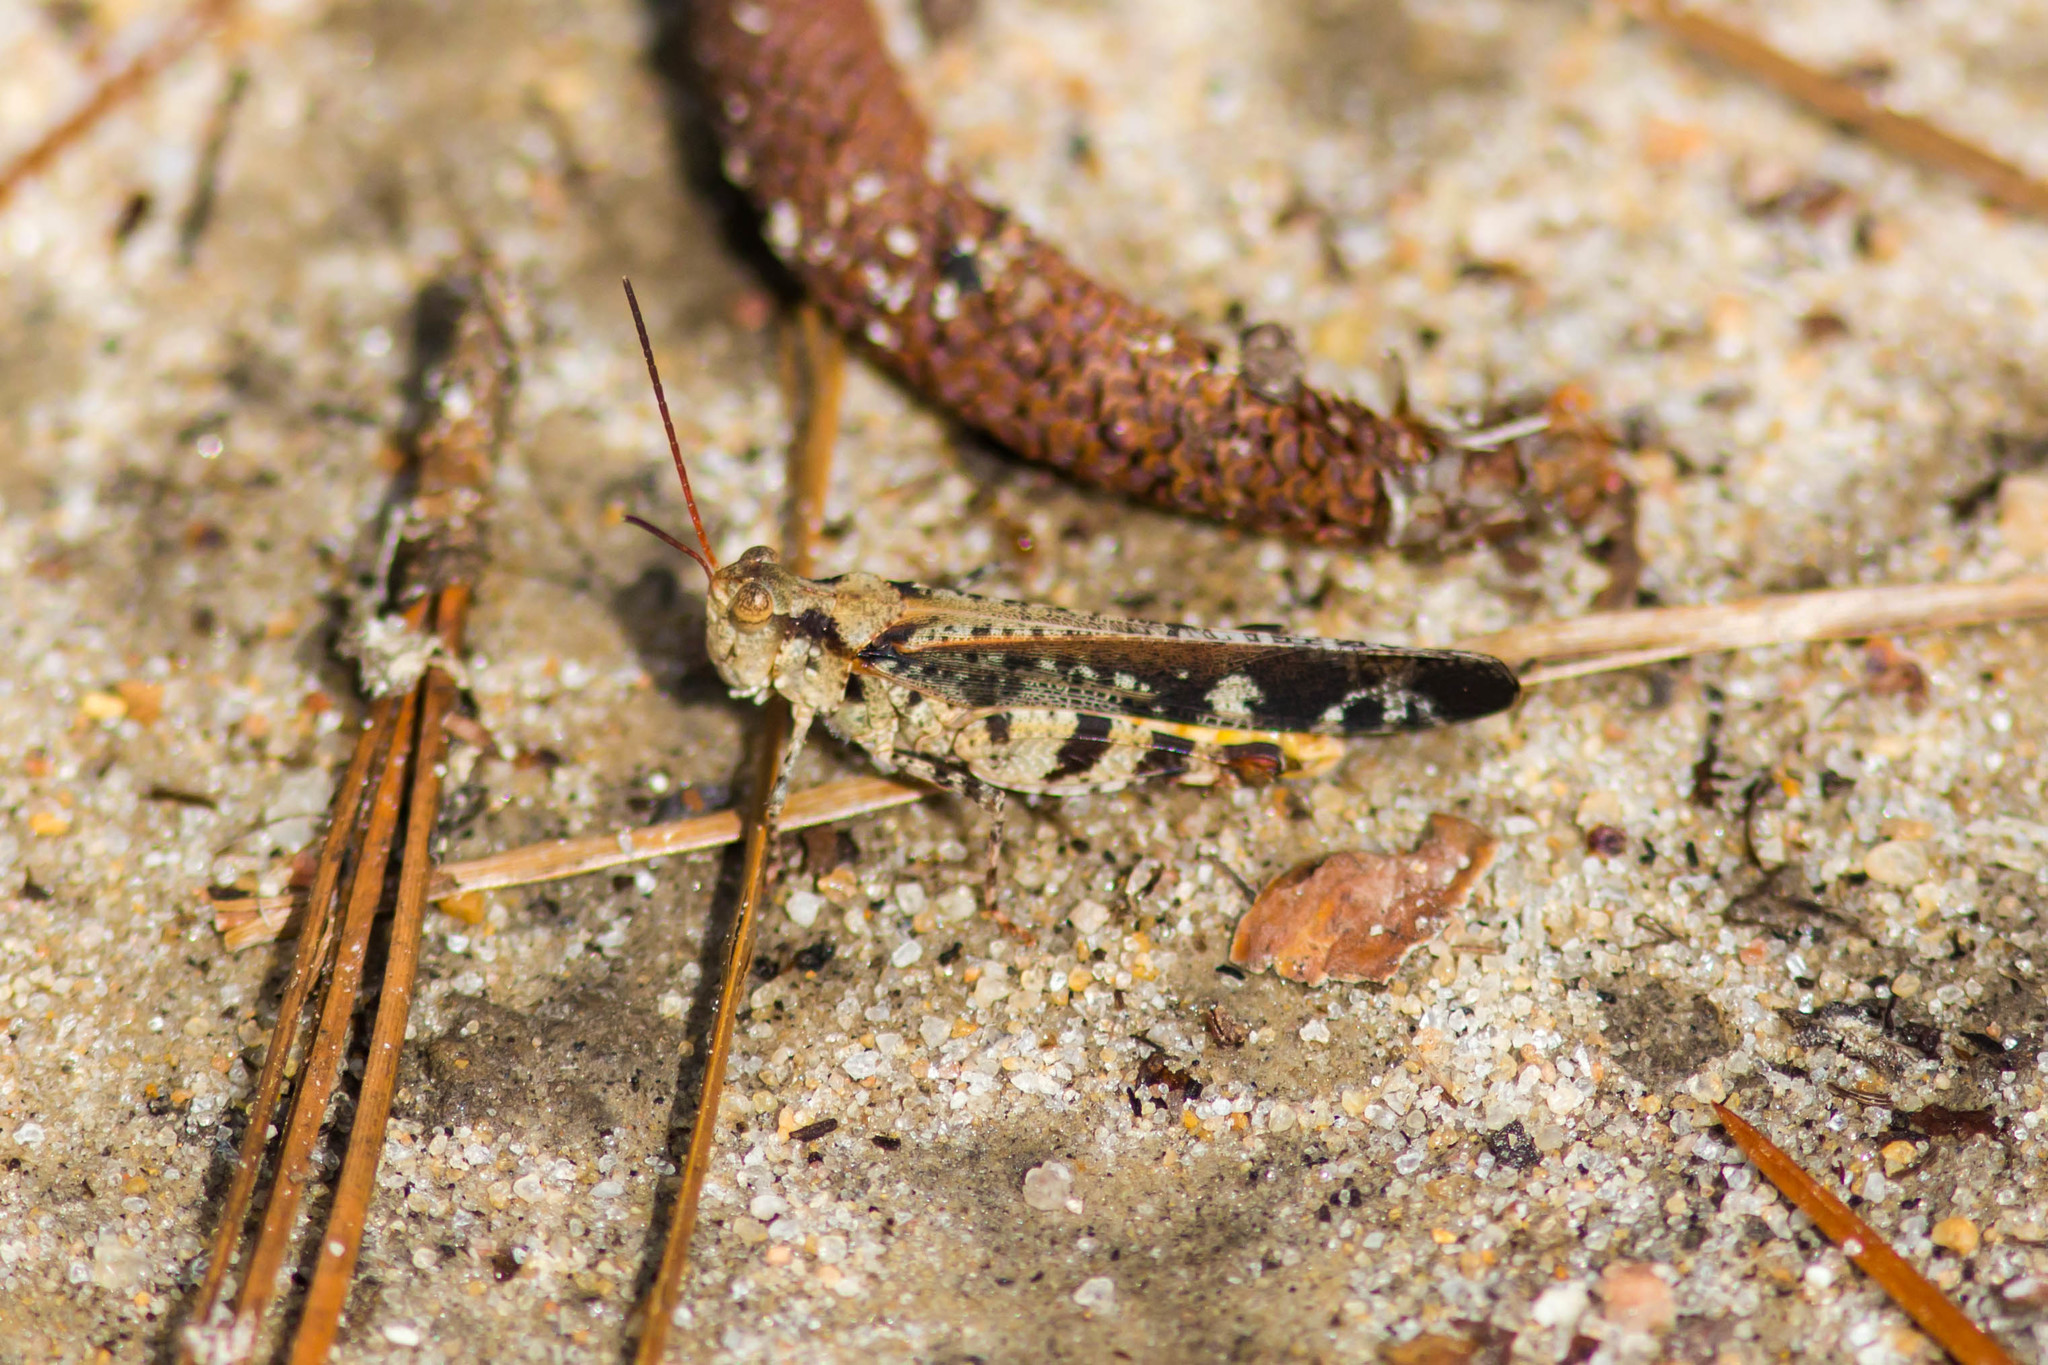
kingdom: Animalia
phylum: Arthropoda
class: Insecta
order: Orthoptera
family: Acrididae
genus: Spharagemon
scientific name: Spharagemon marmoratum
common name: Marbled grasshopper
